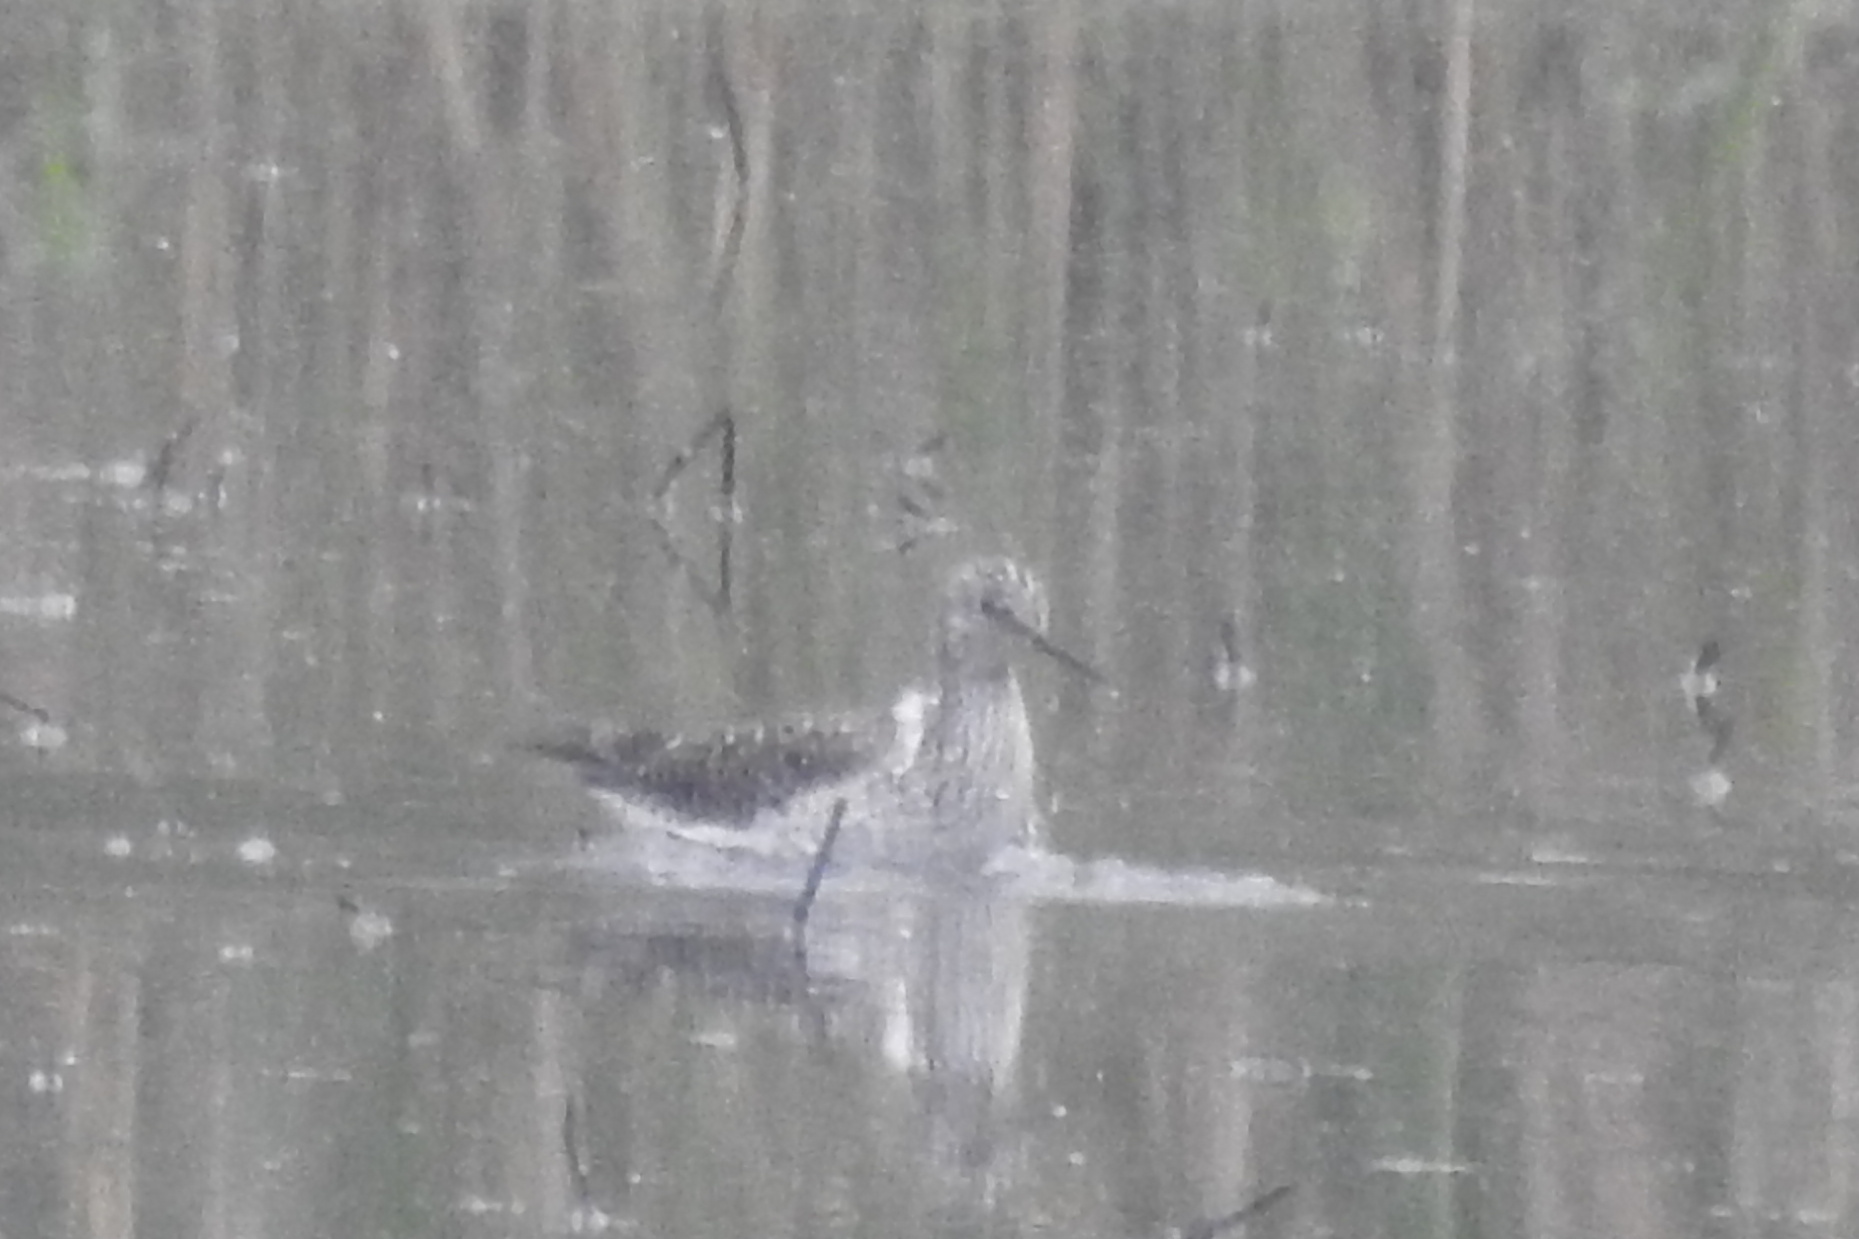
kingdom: Animalia
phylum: Chordata
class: Aves
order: Charadriiformes
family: Scolopacidae
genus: Tringa
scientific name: Tringa flavipes
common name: Lesser yellowlegs
